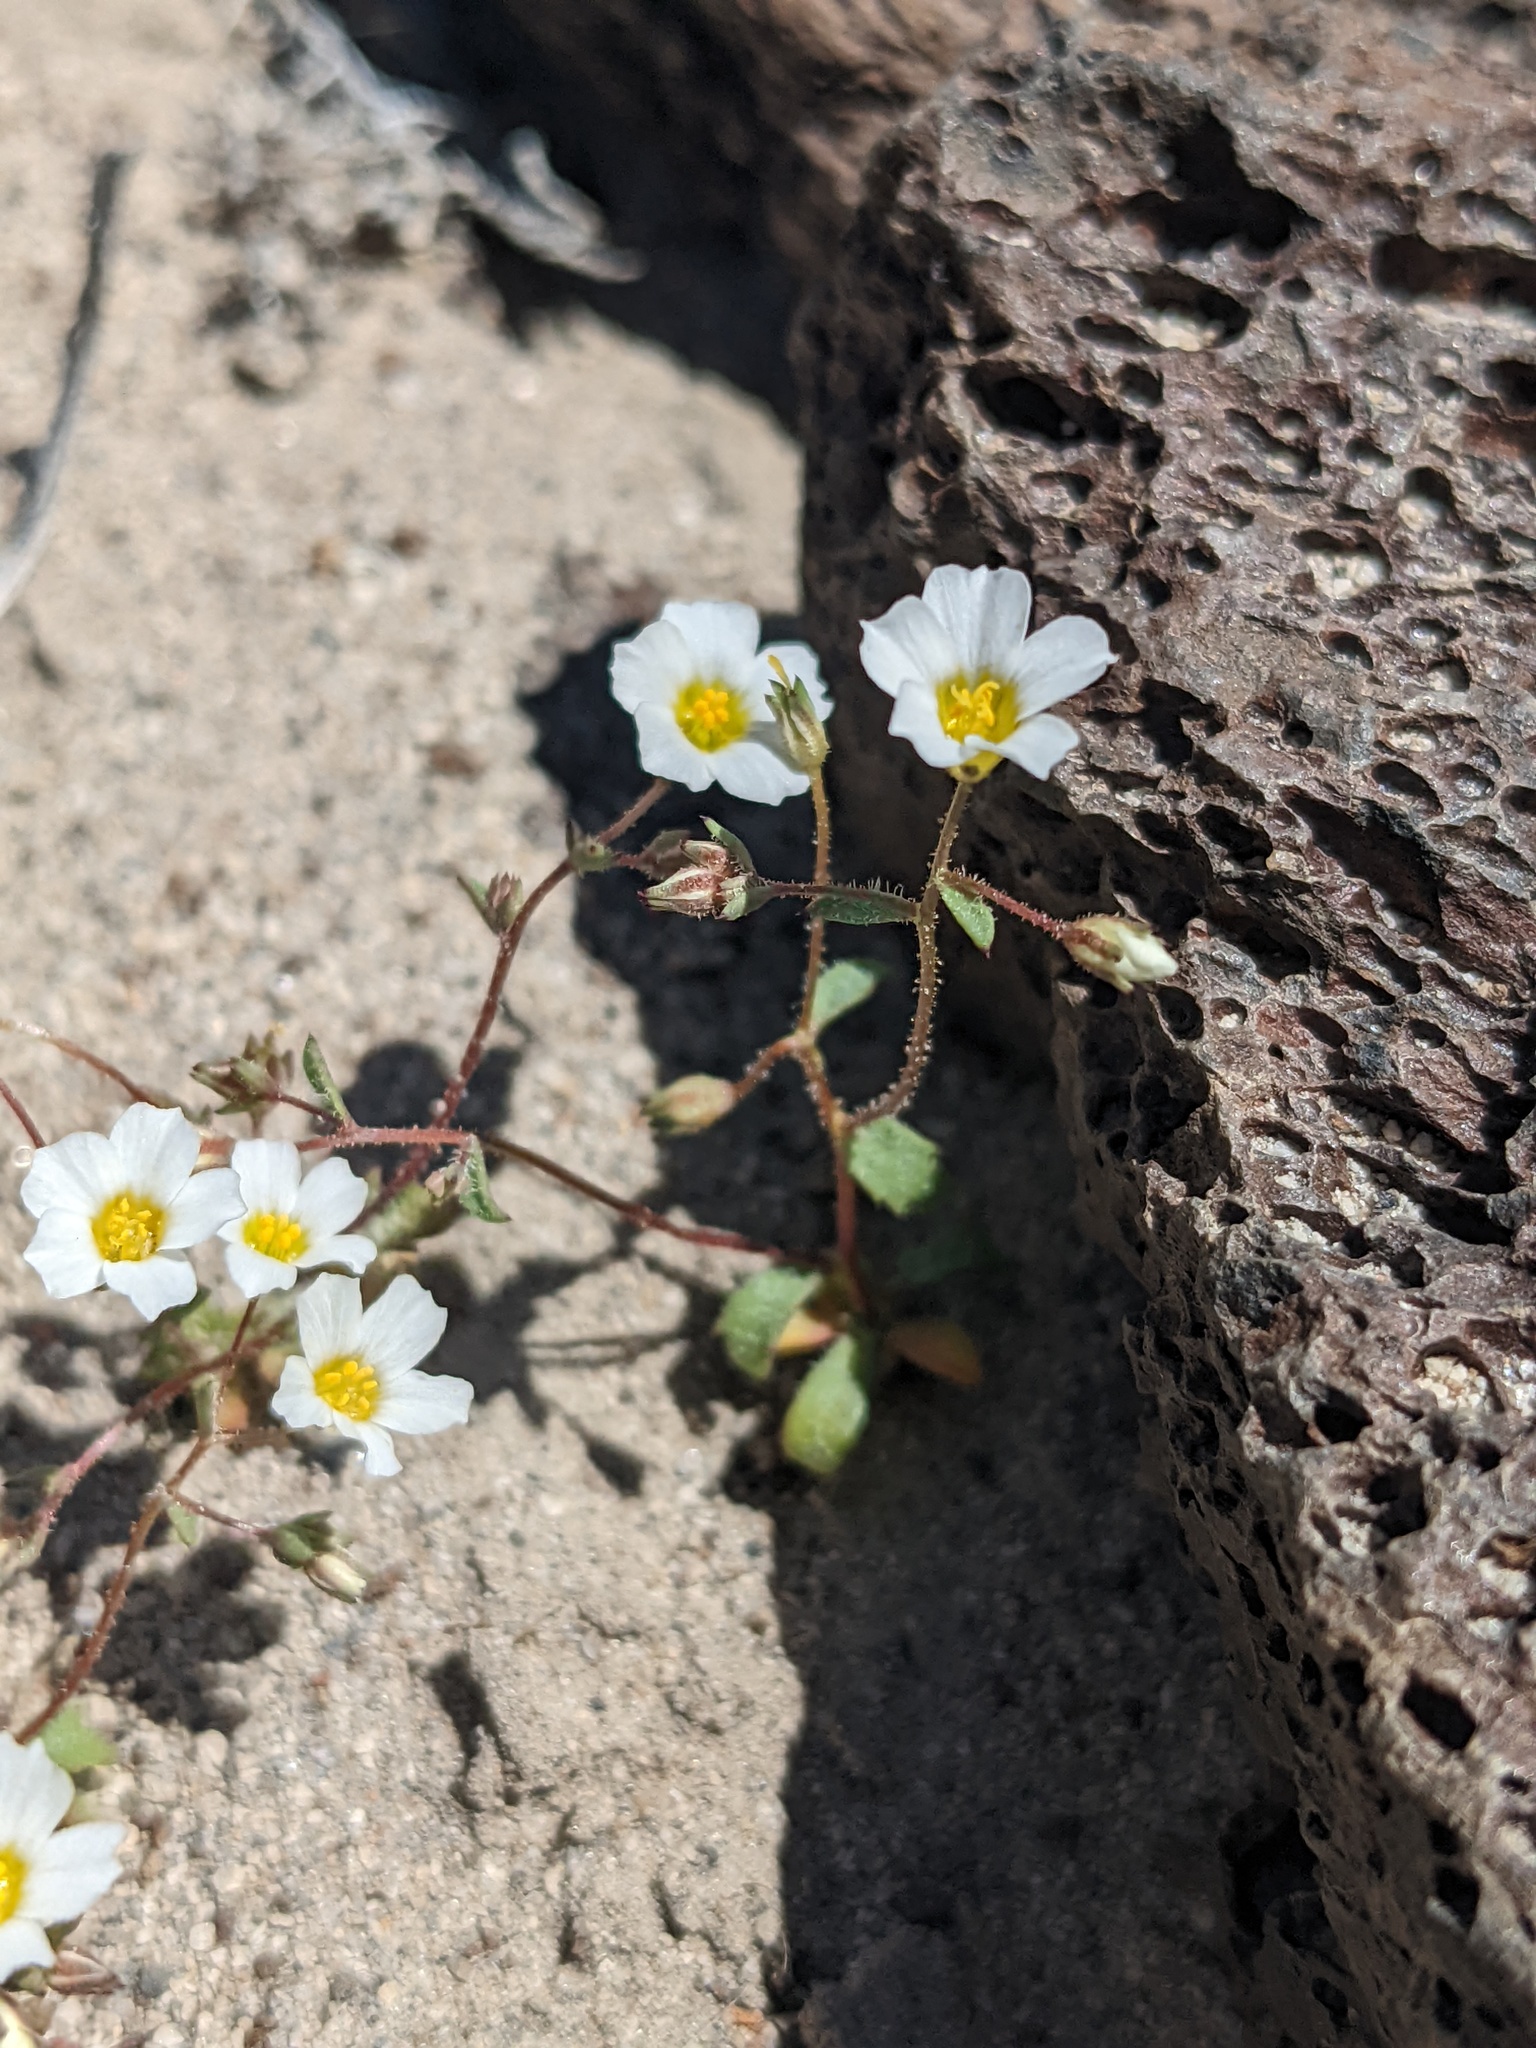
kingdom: Plantae
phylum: Tracheophyta
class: Magnoliopsida
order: Ericales
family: Polemoniaceae
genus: Linanthus
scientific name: Linanthus inyoensis
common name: Inyo gilia
